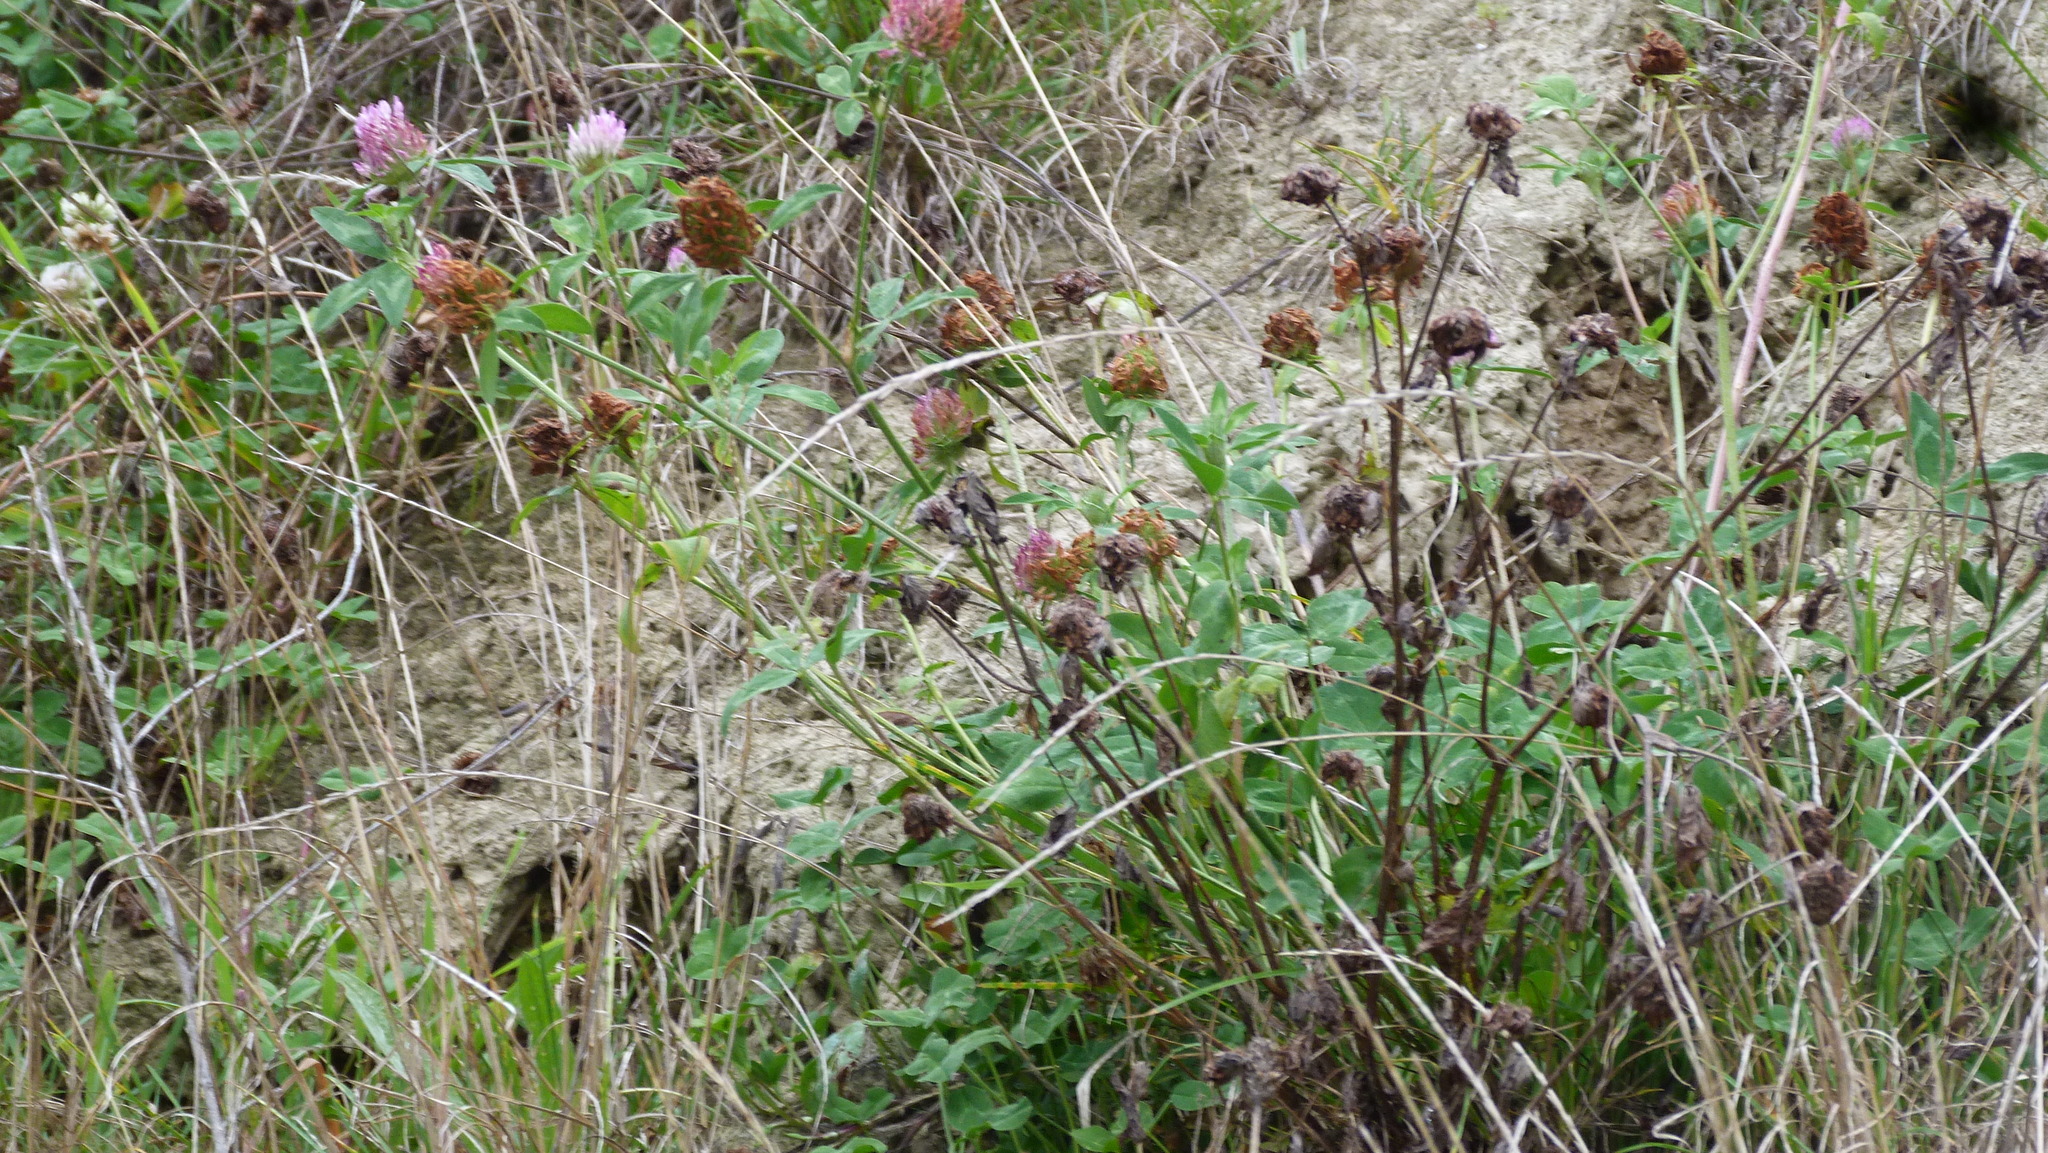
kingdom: Plantae
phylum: Tracheophyta
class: Magnoliopsida
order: Fabales
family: Fabaceae
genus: Trifolium
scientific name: Trifolium pratense
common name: Red clover
